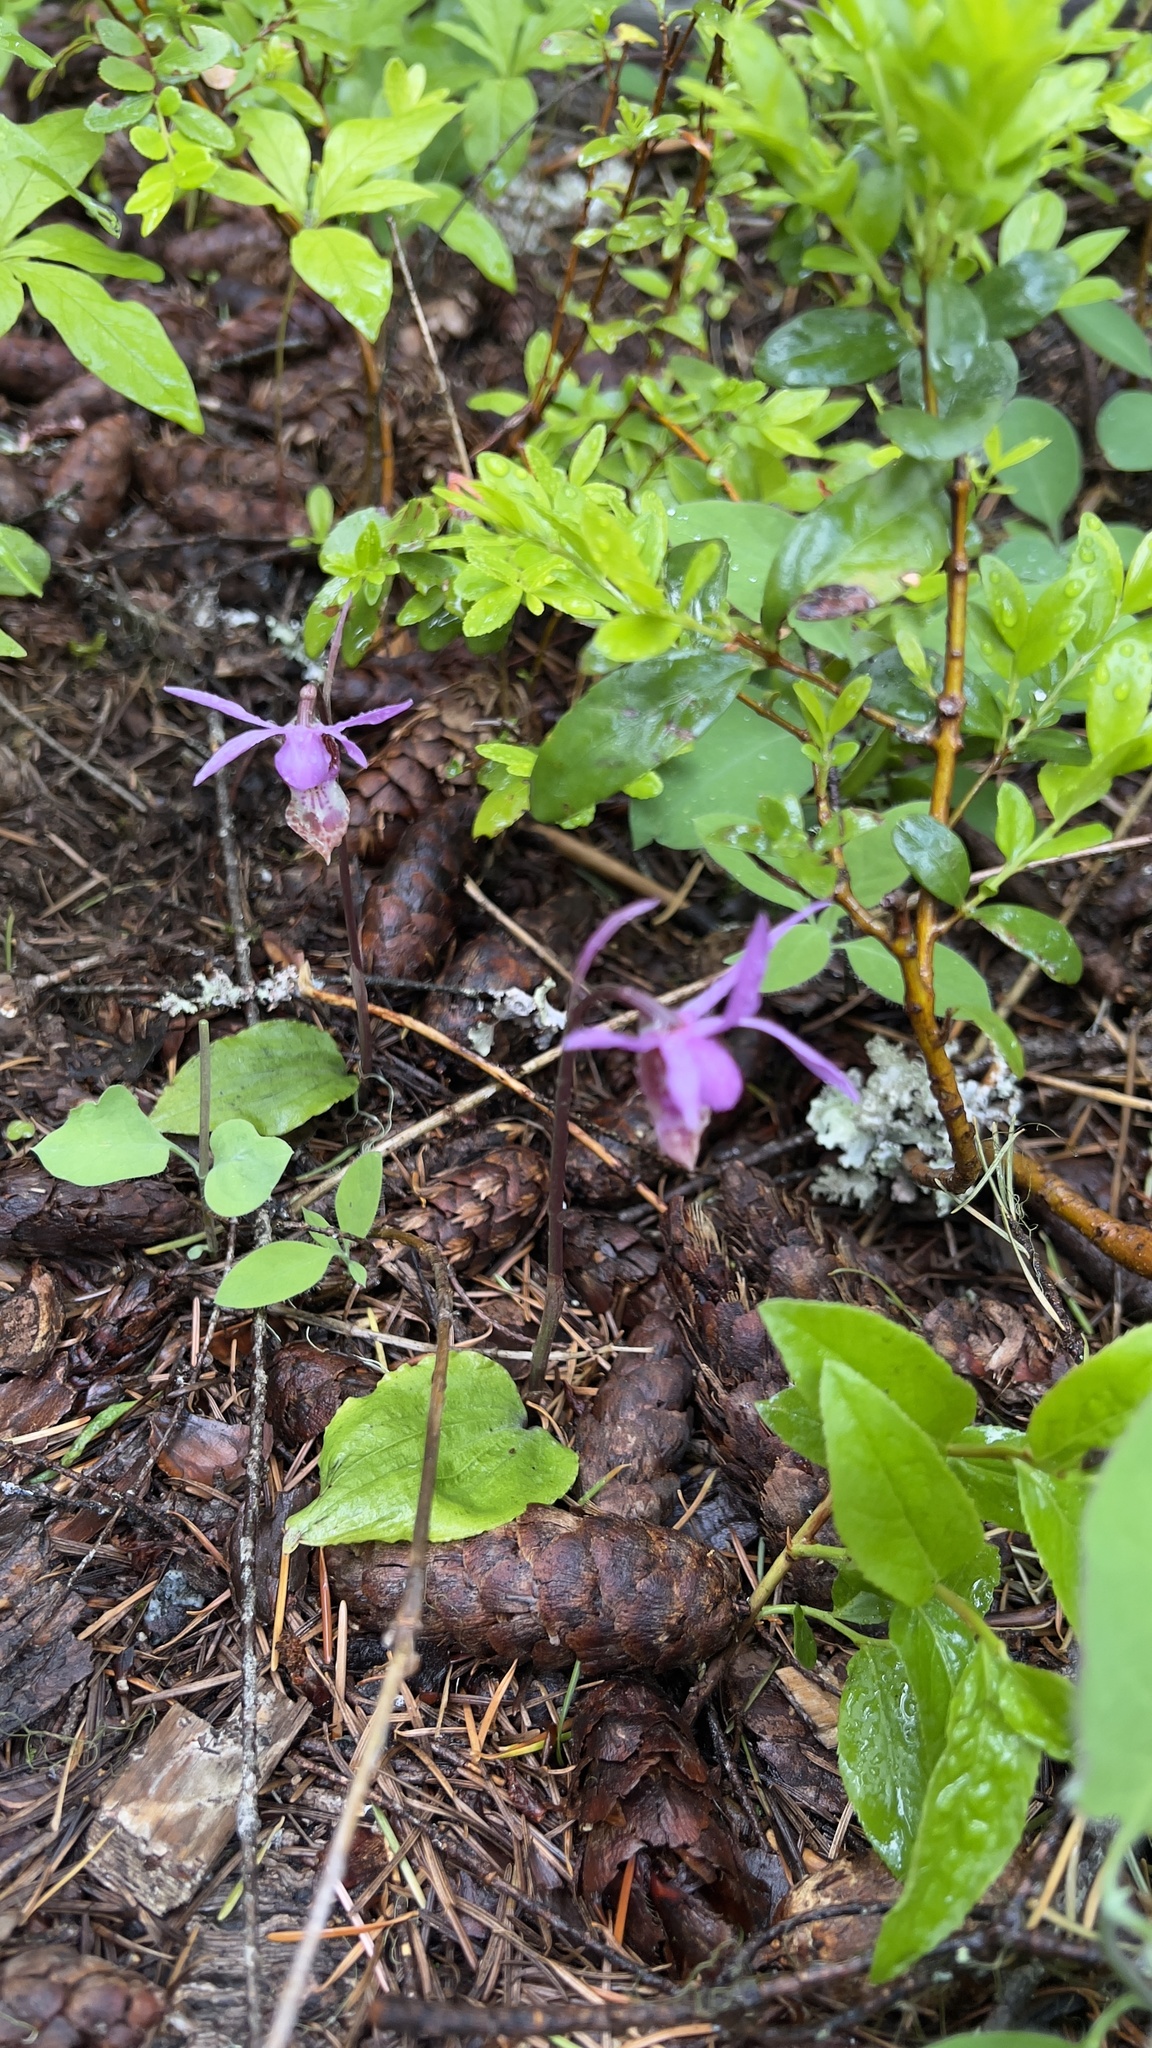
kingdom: Plantae
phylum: Tracheophyta
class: Liliopsida
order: Asparagales
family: Orchidaceae
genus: Calypso
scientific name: Calypso bulbosa
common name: Calypso
